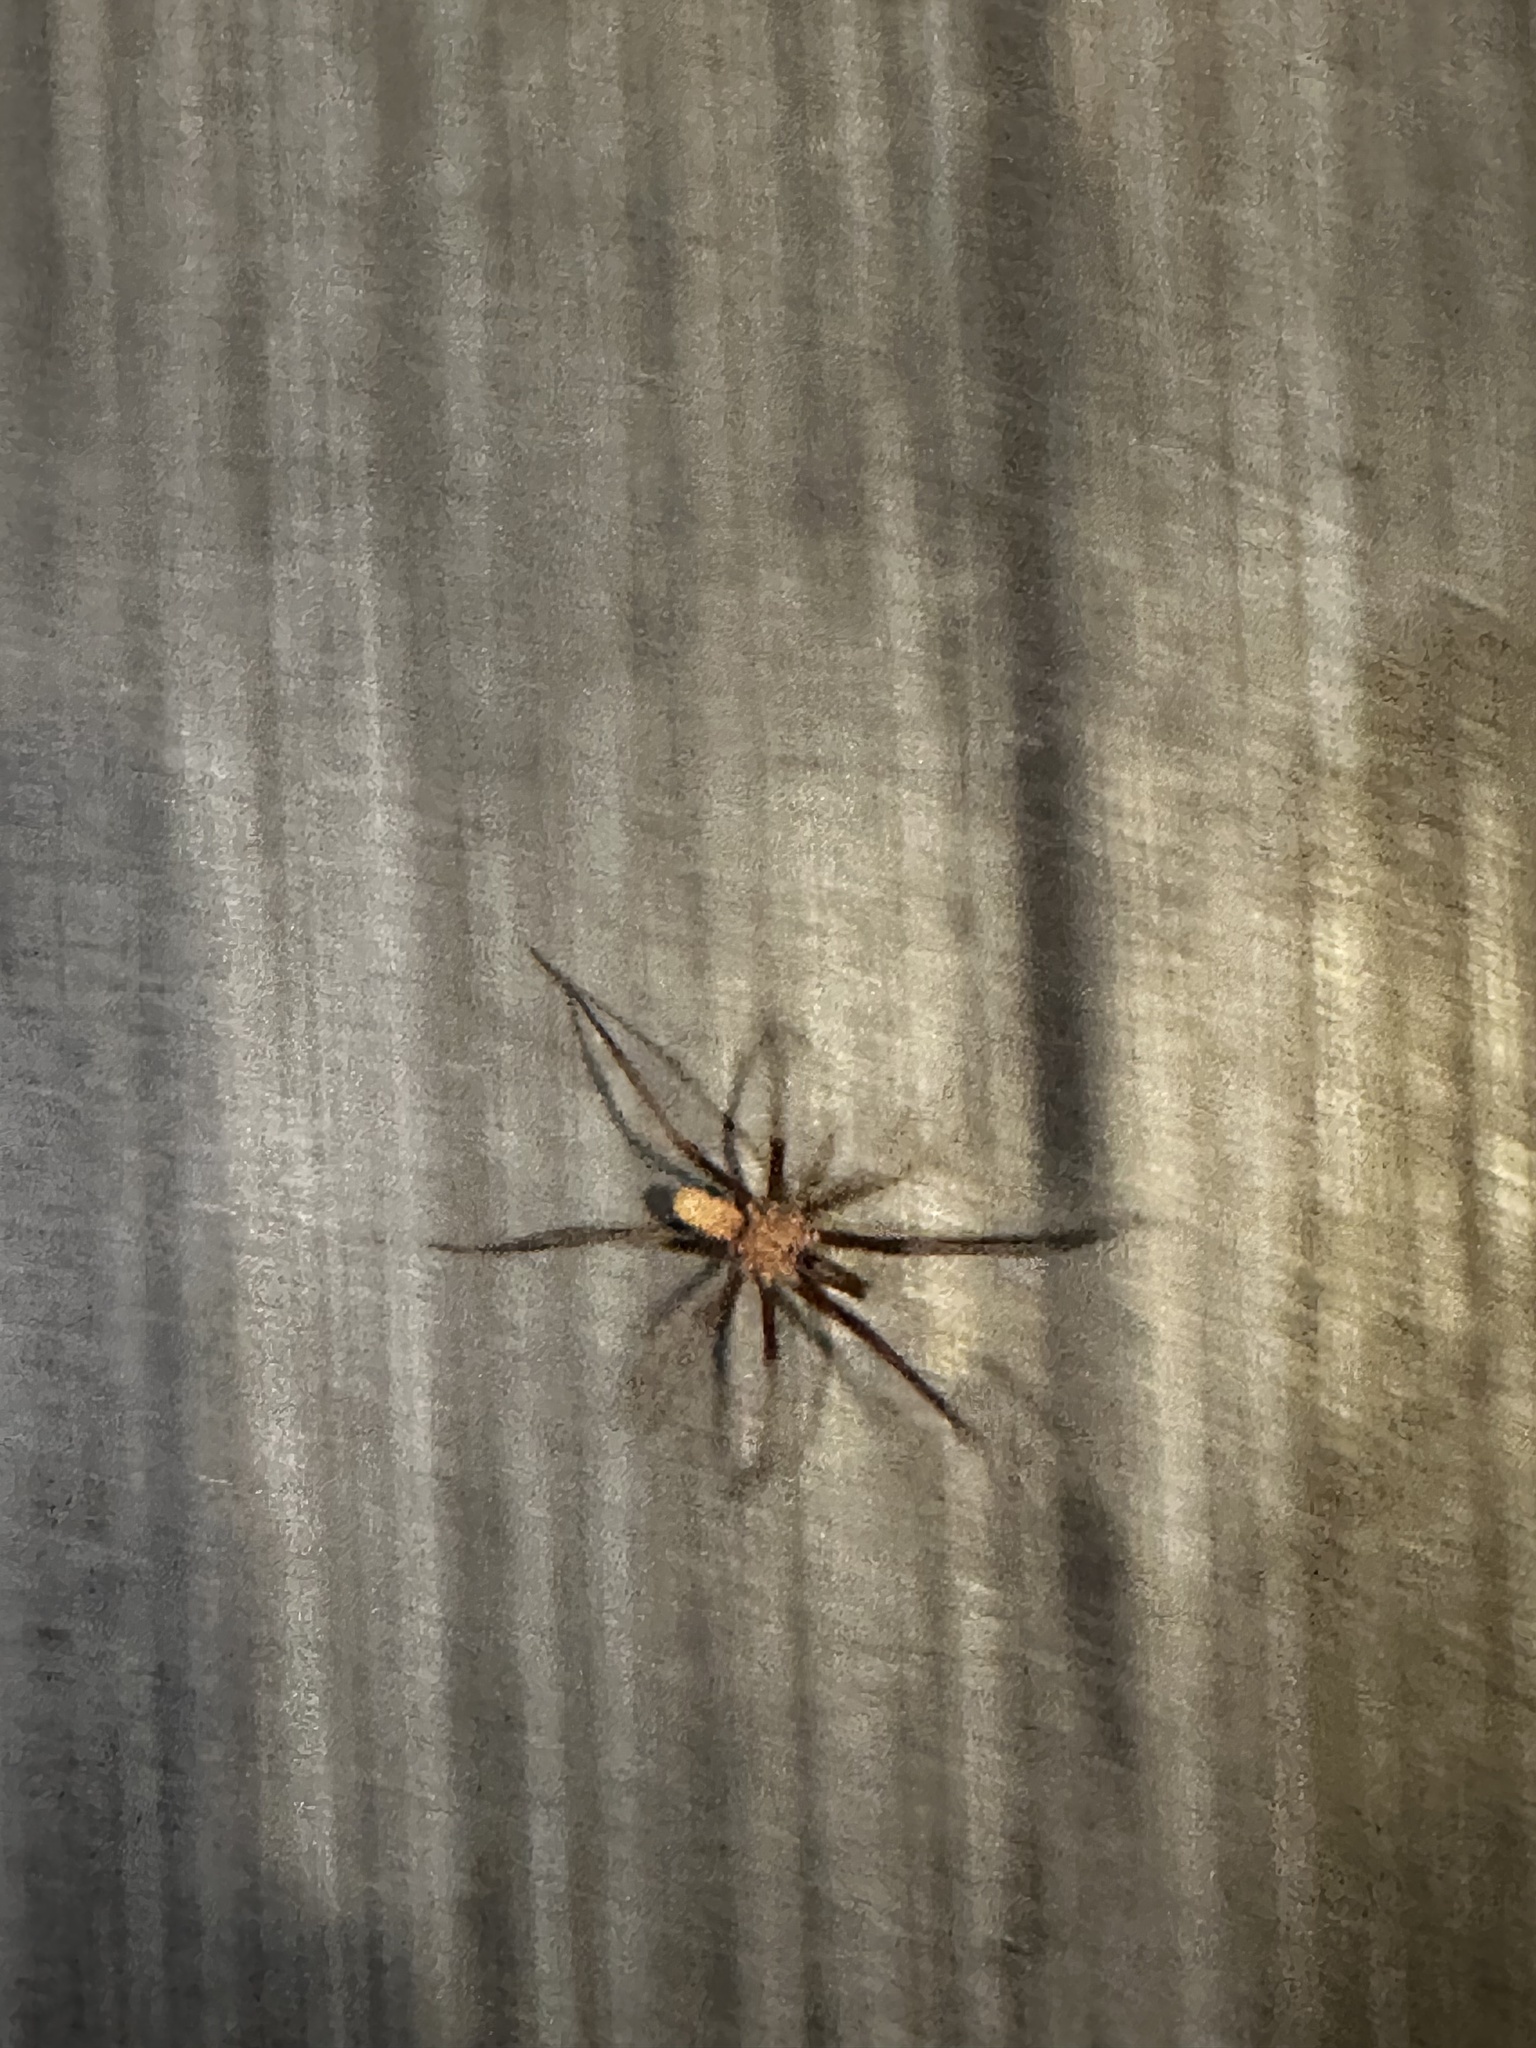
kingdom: Animalia
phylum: Arthropoda
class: Arachnida
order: Araneae
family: Filistatidae
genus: Kukulcania
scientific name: Kukulcania hibernalis
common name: Crevice weaver
